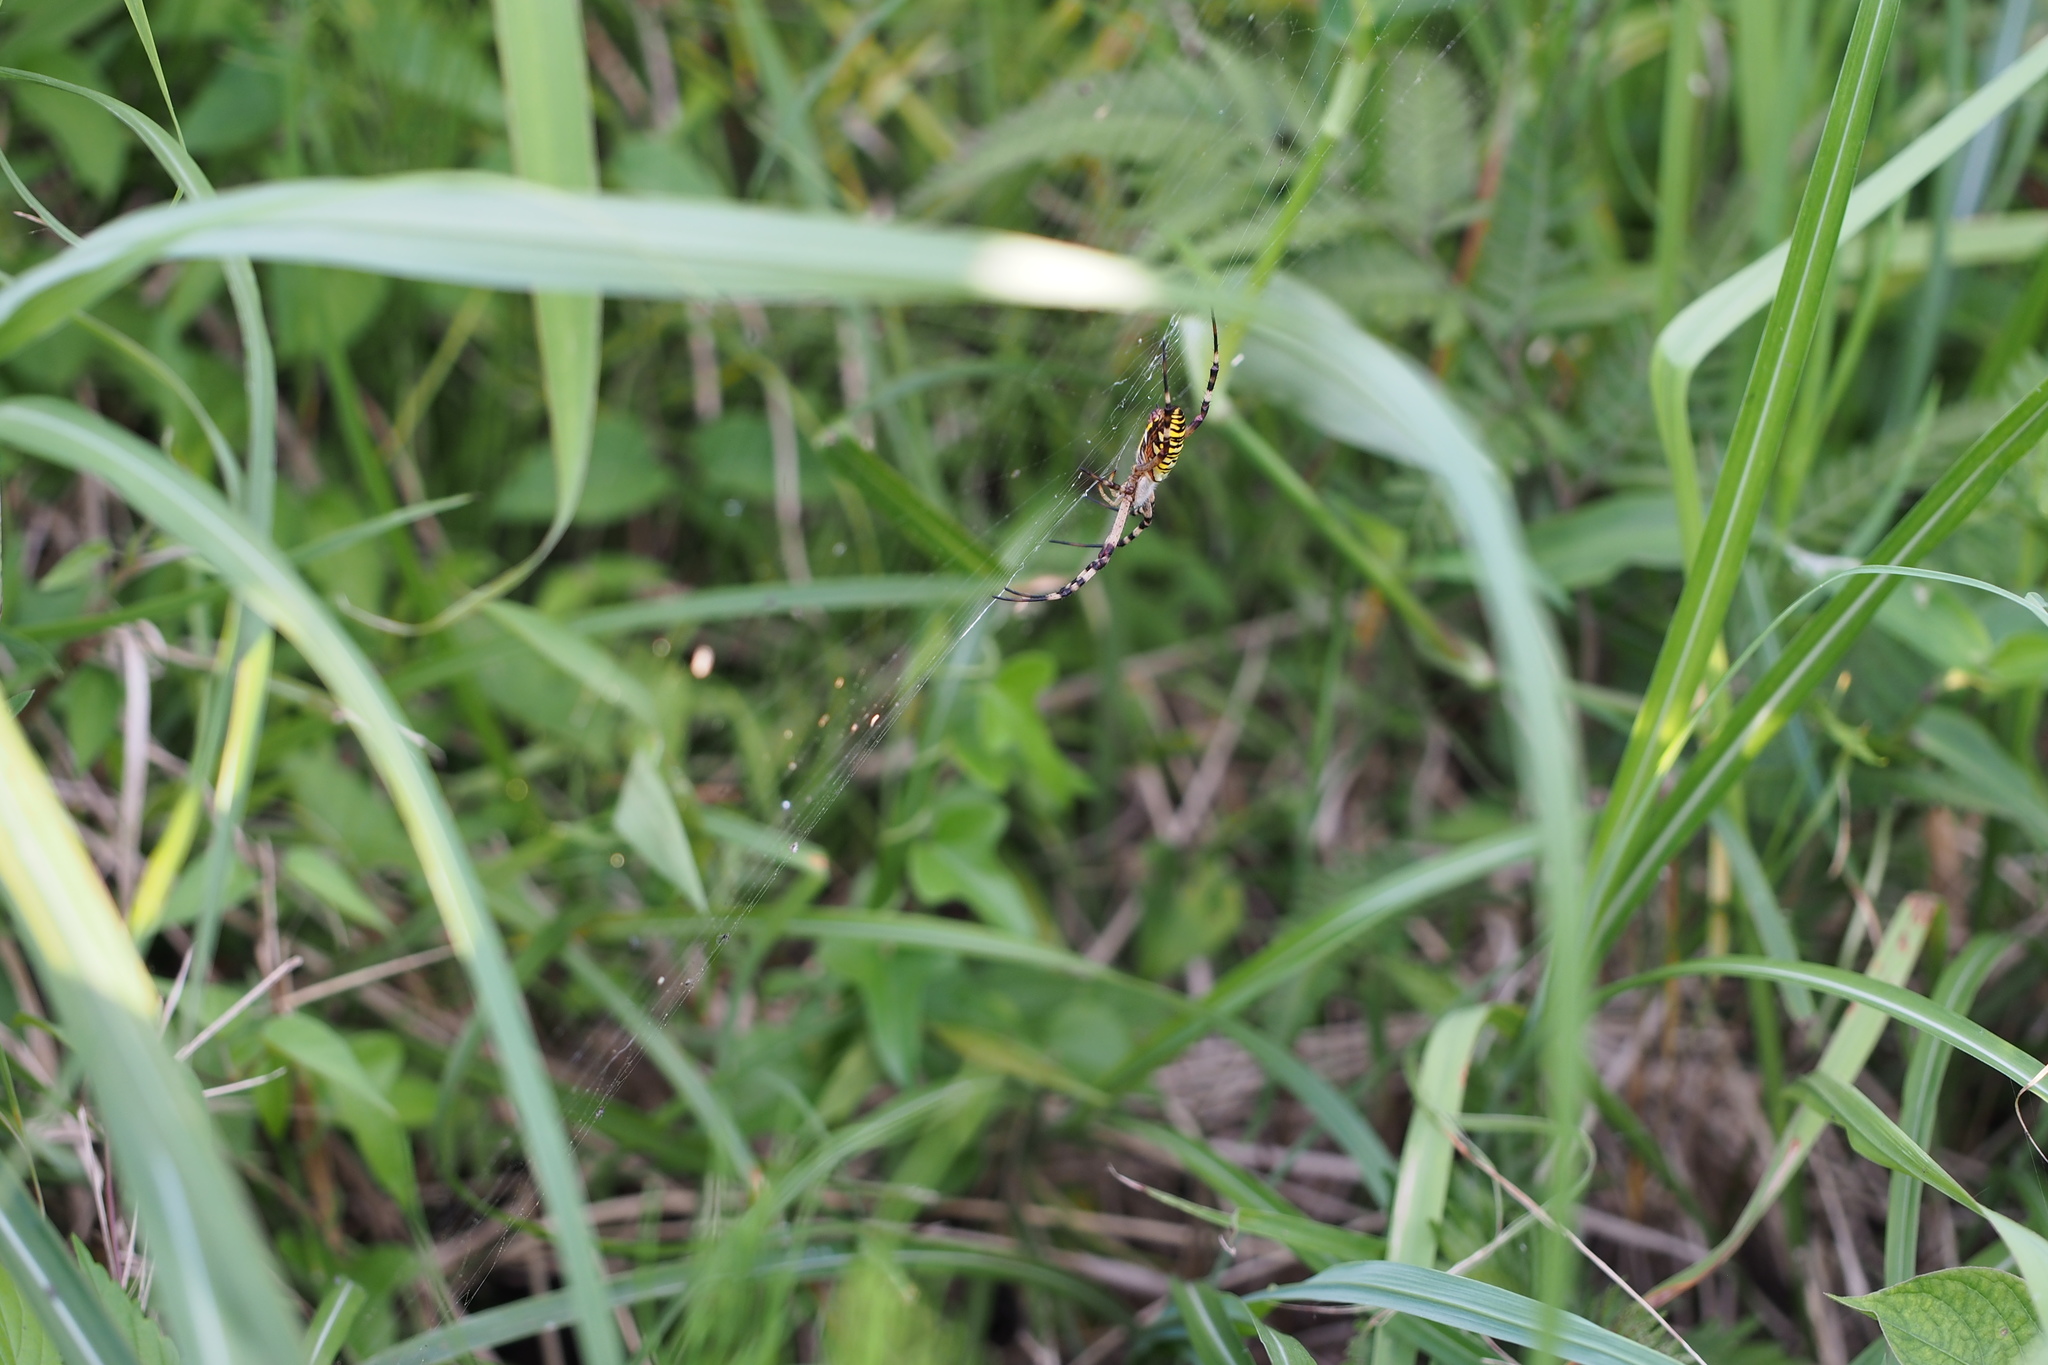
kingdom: Animalia
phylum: Arthropoda
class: Arachnida
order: Araneae
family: Araneidae
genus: Argiope
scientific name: Argiope bruennichi
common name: Wasp spider
